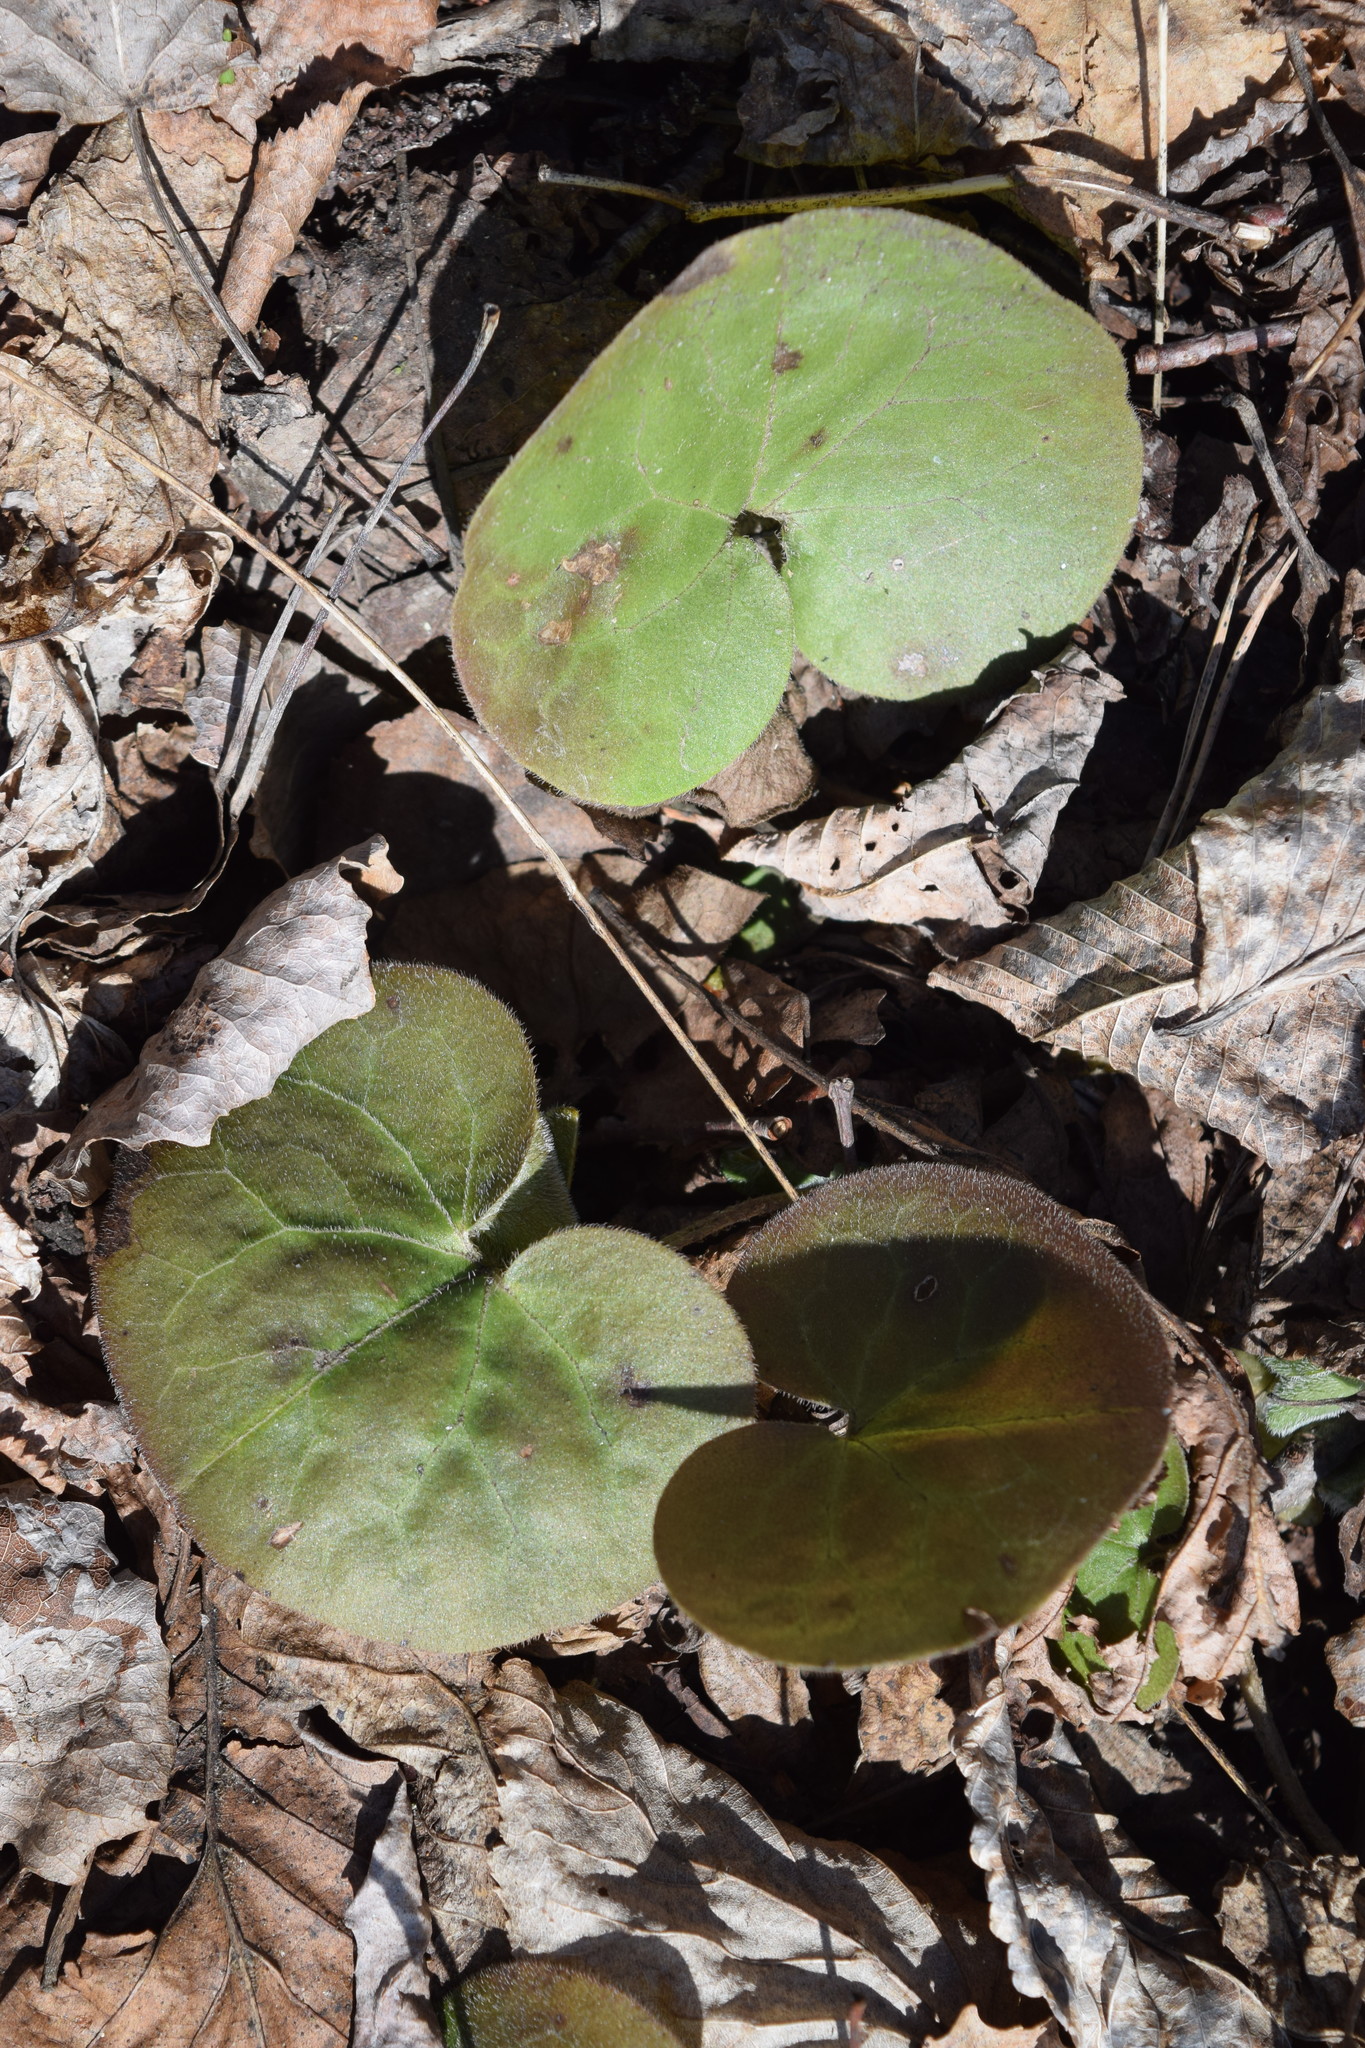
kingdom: Plantae
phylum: Tracheophyta
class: Magnoliopsida
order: Piperales
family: Aristolochiaceae
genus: Asarum
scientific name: Asarum europaeum
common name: Asarabacca
